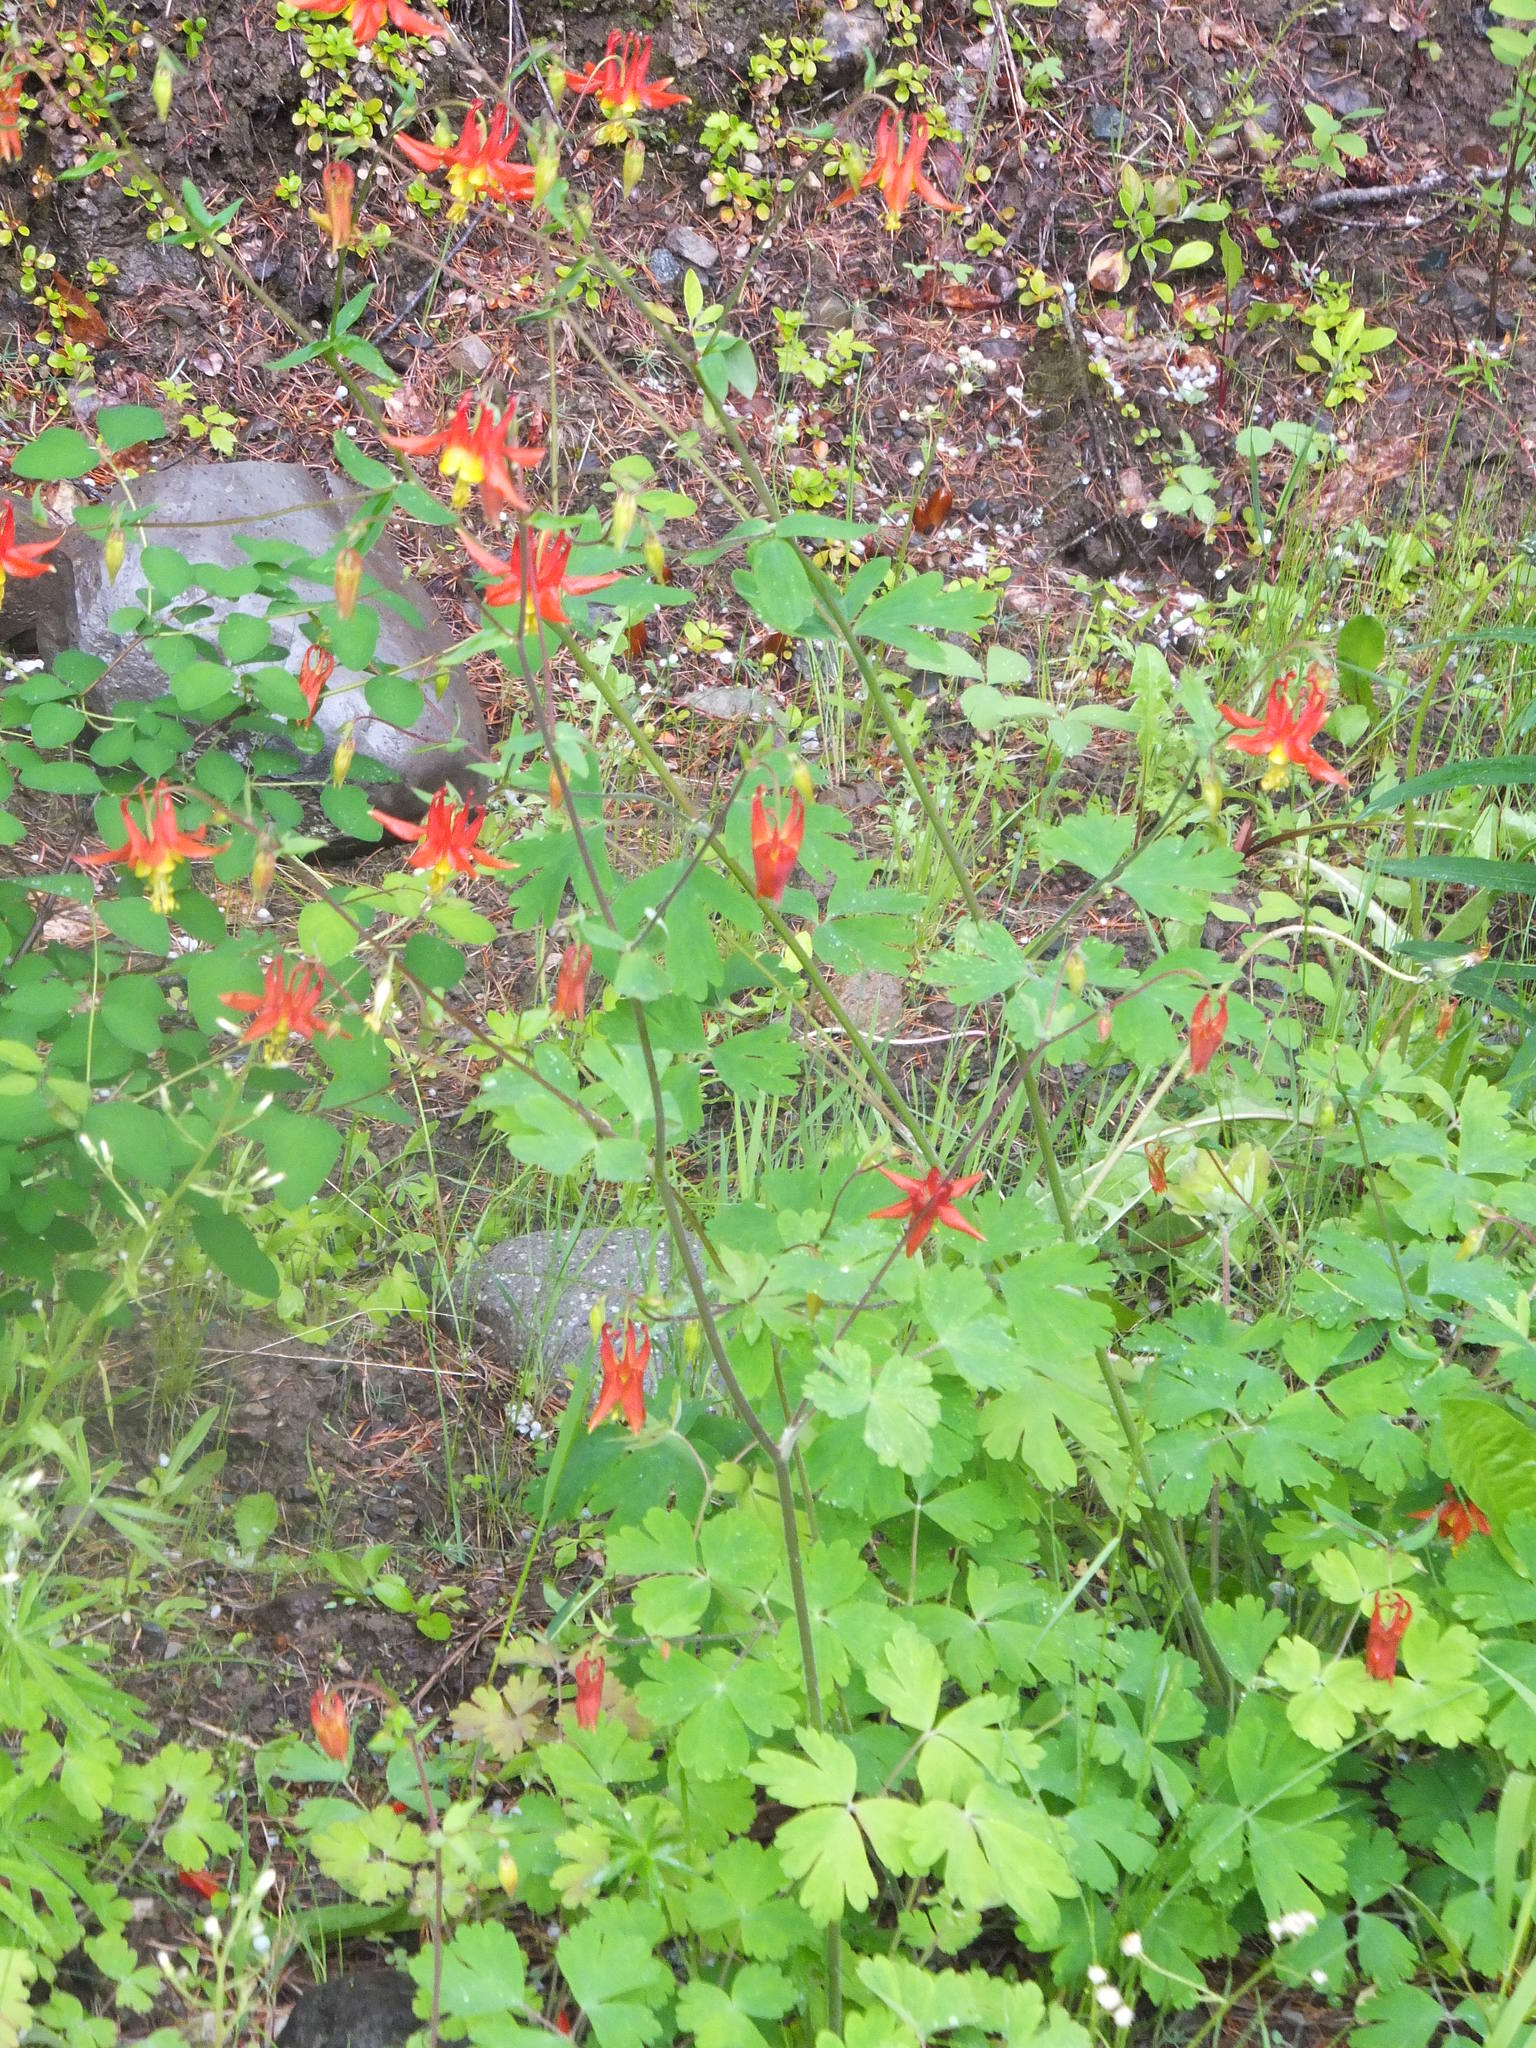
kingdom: Plantae
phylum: Tracheophyta
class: Magnoliopsida
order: Ranunculales
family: Ranunculaceae
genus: Aquilegia
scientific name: Aquilegia formosa
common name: Sitka columbine
